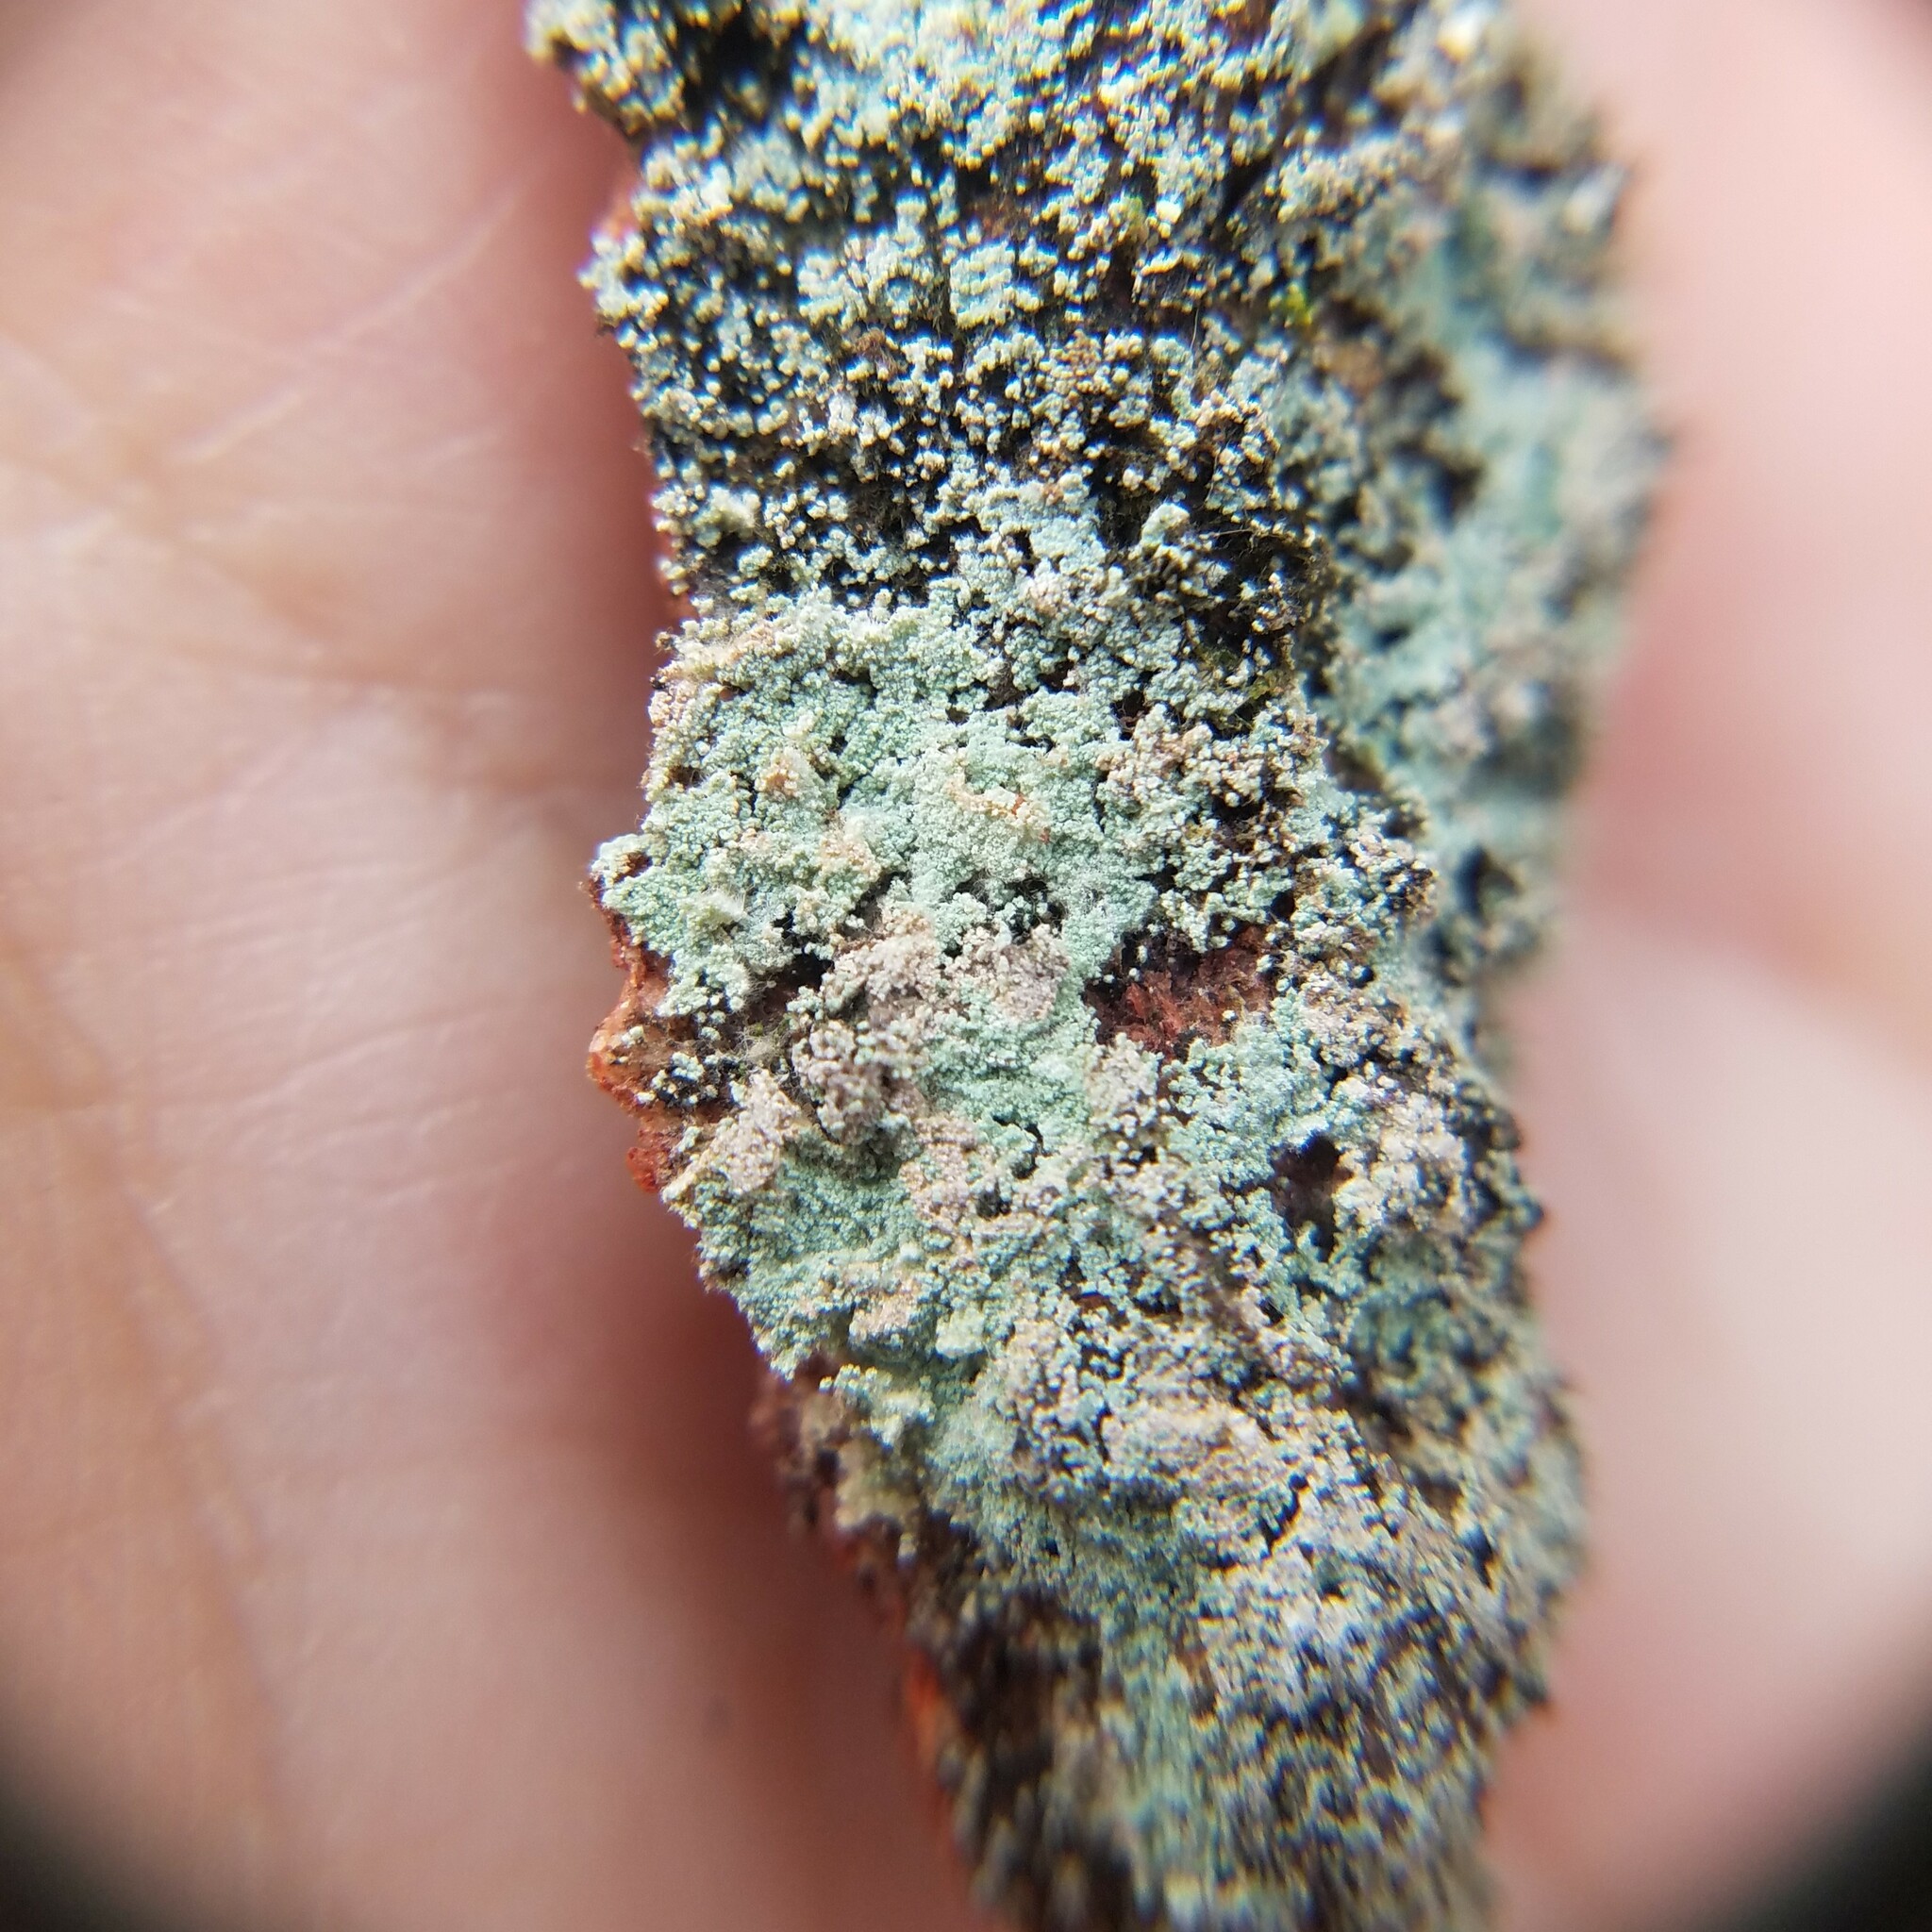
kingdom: Fungi
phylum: Ascomycota
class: Lecanoromycetes
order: Lecanorales
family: Stereocaulaceae
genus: Lepraria
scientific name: Lepraria lobificans
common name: Fluffy dust lichen
